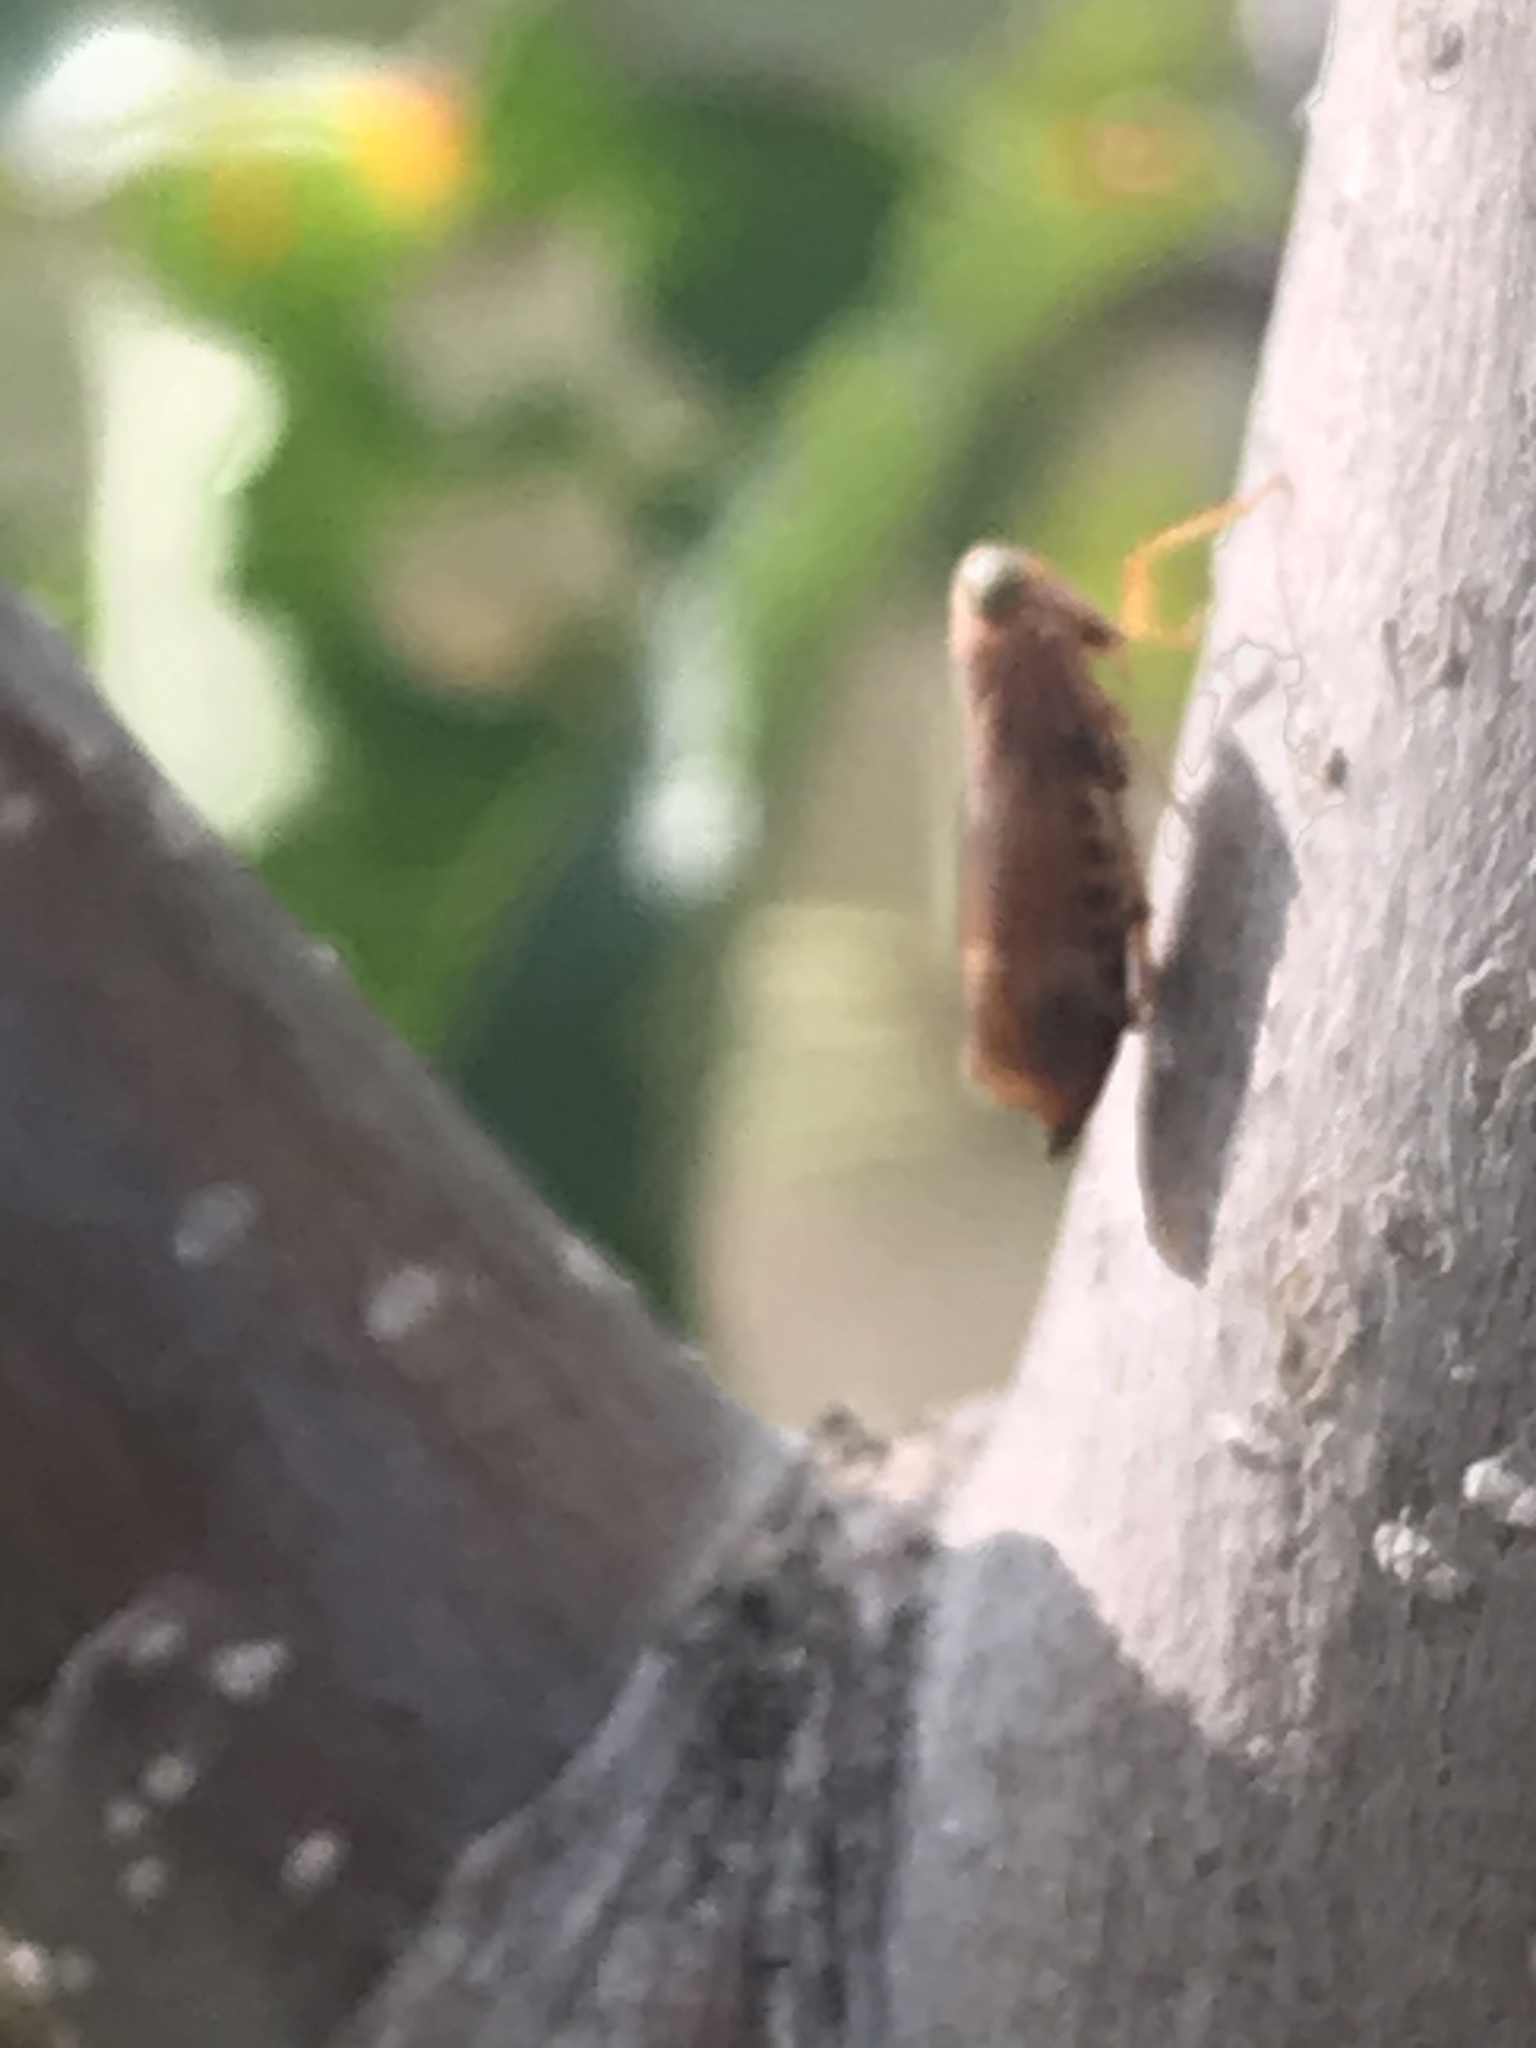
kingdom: Animalia
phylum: Arthropoda
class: Insecta
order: Hemiptera
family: Cicadellidae
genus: Jikradia
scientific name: Jikradia olitoria
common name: Coppery leafhopper
